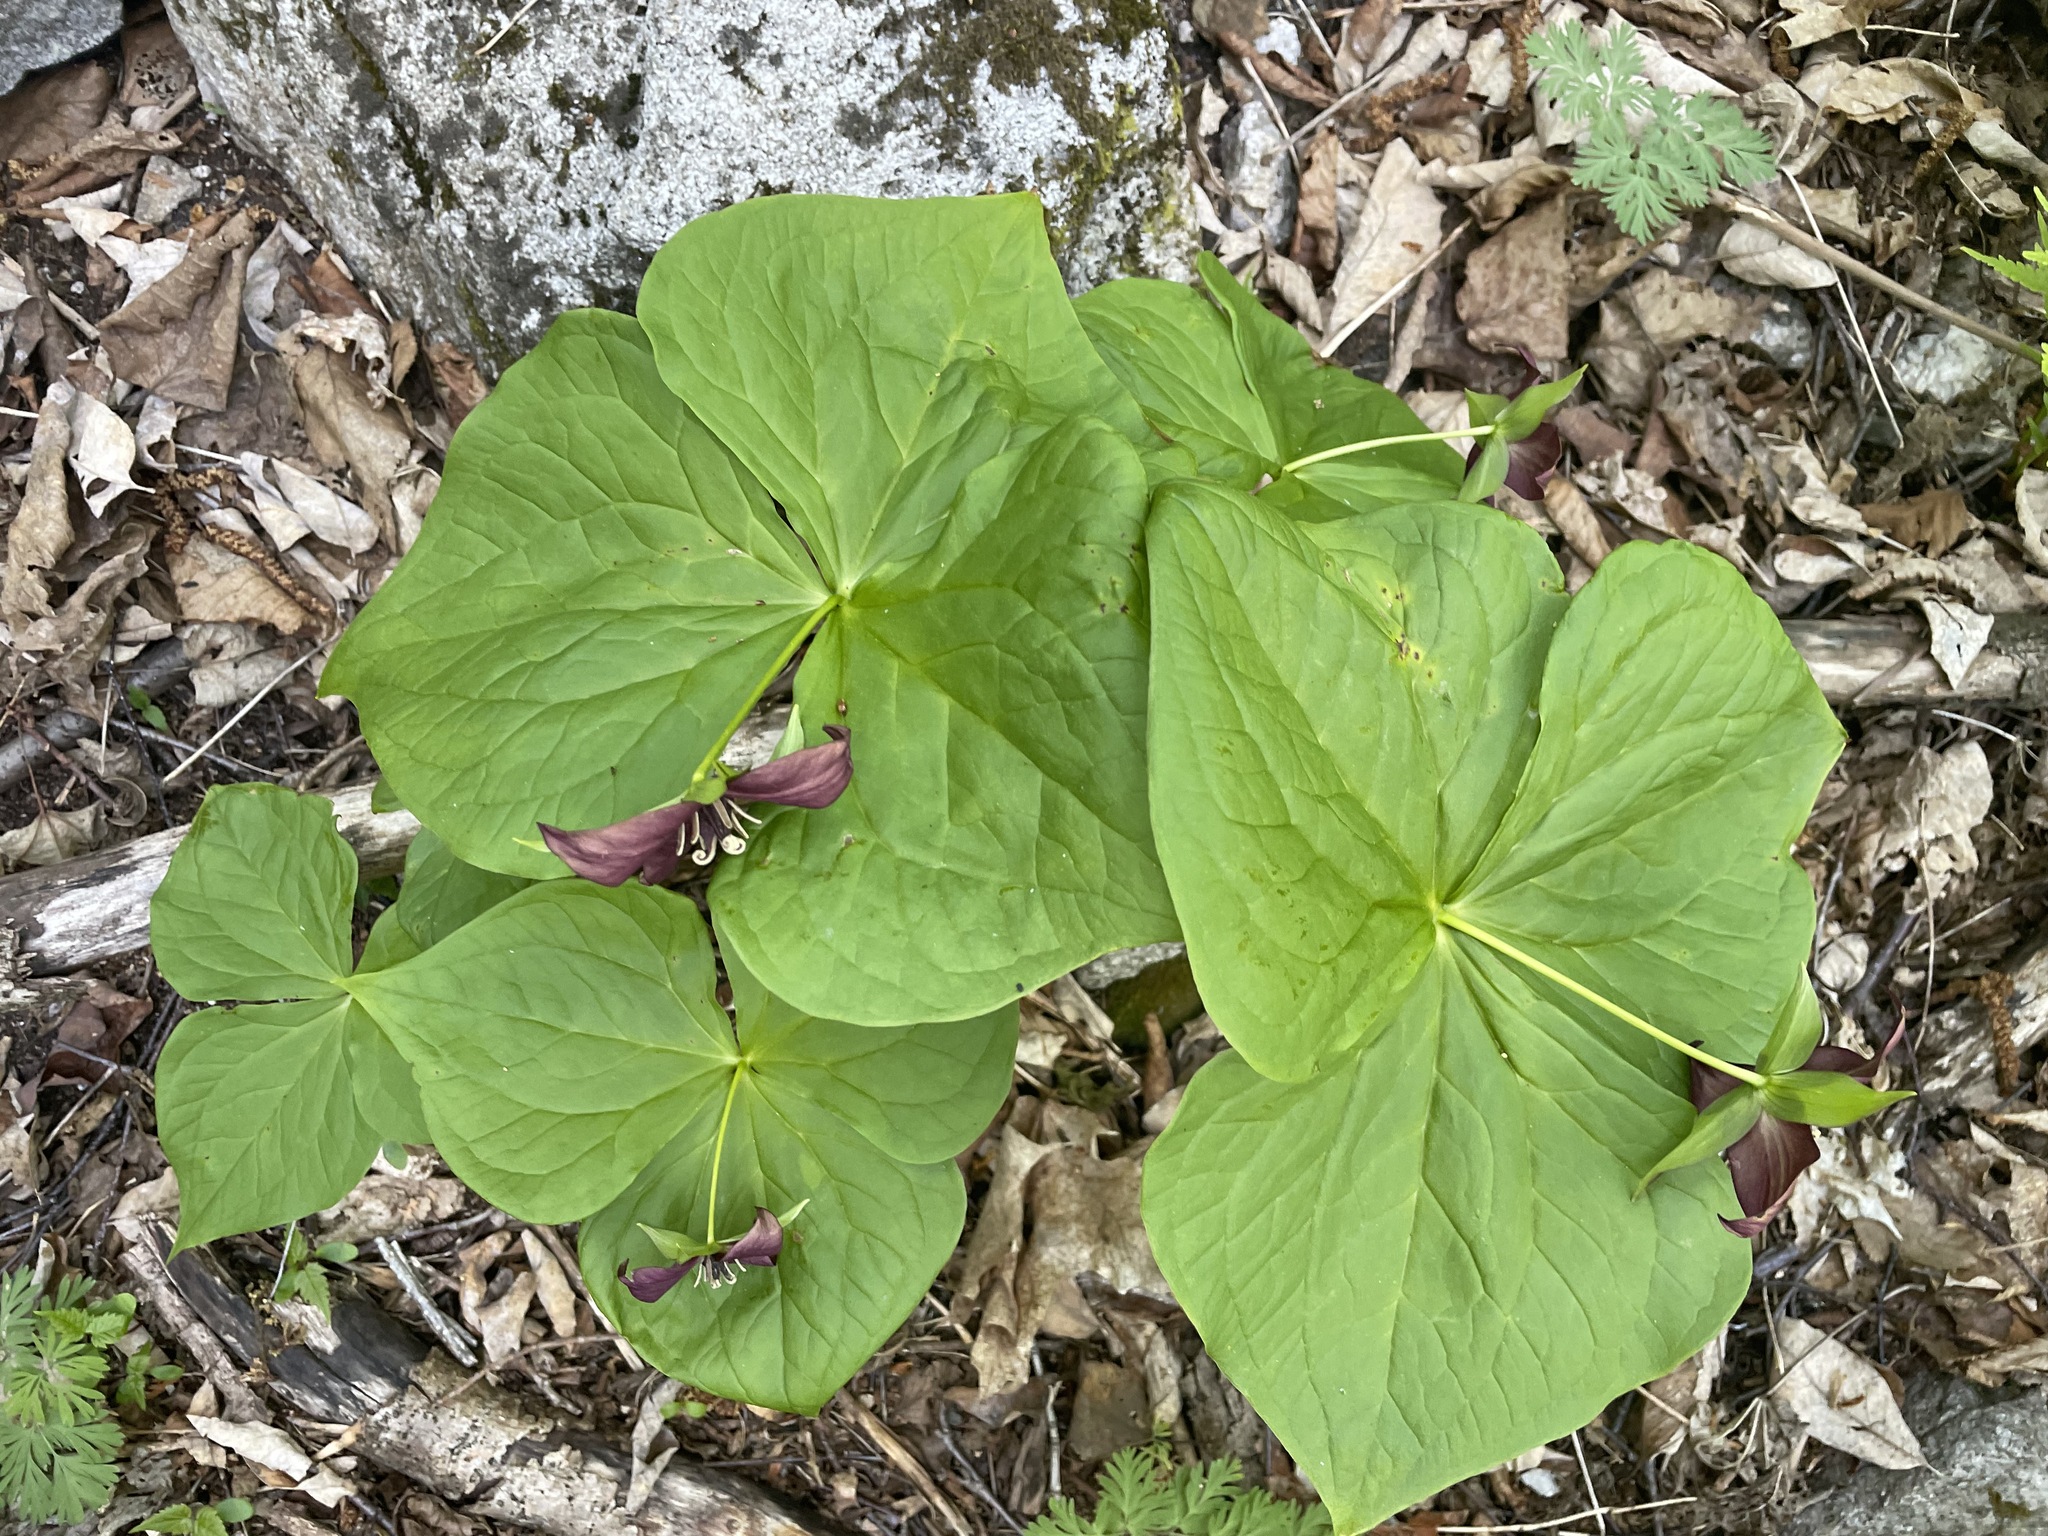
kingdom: Plantae
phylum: Tracheophyta
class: Liliopsida
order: Liliales
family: Melanthiaceae
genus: Trillium
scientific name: Trillium erectum
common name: Purple trillium
